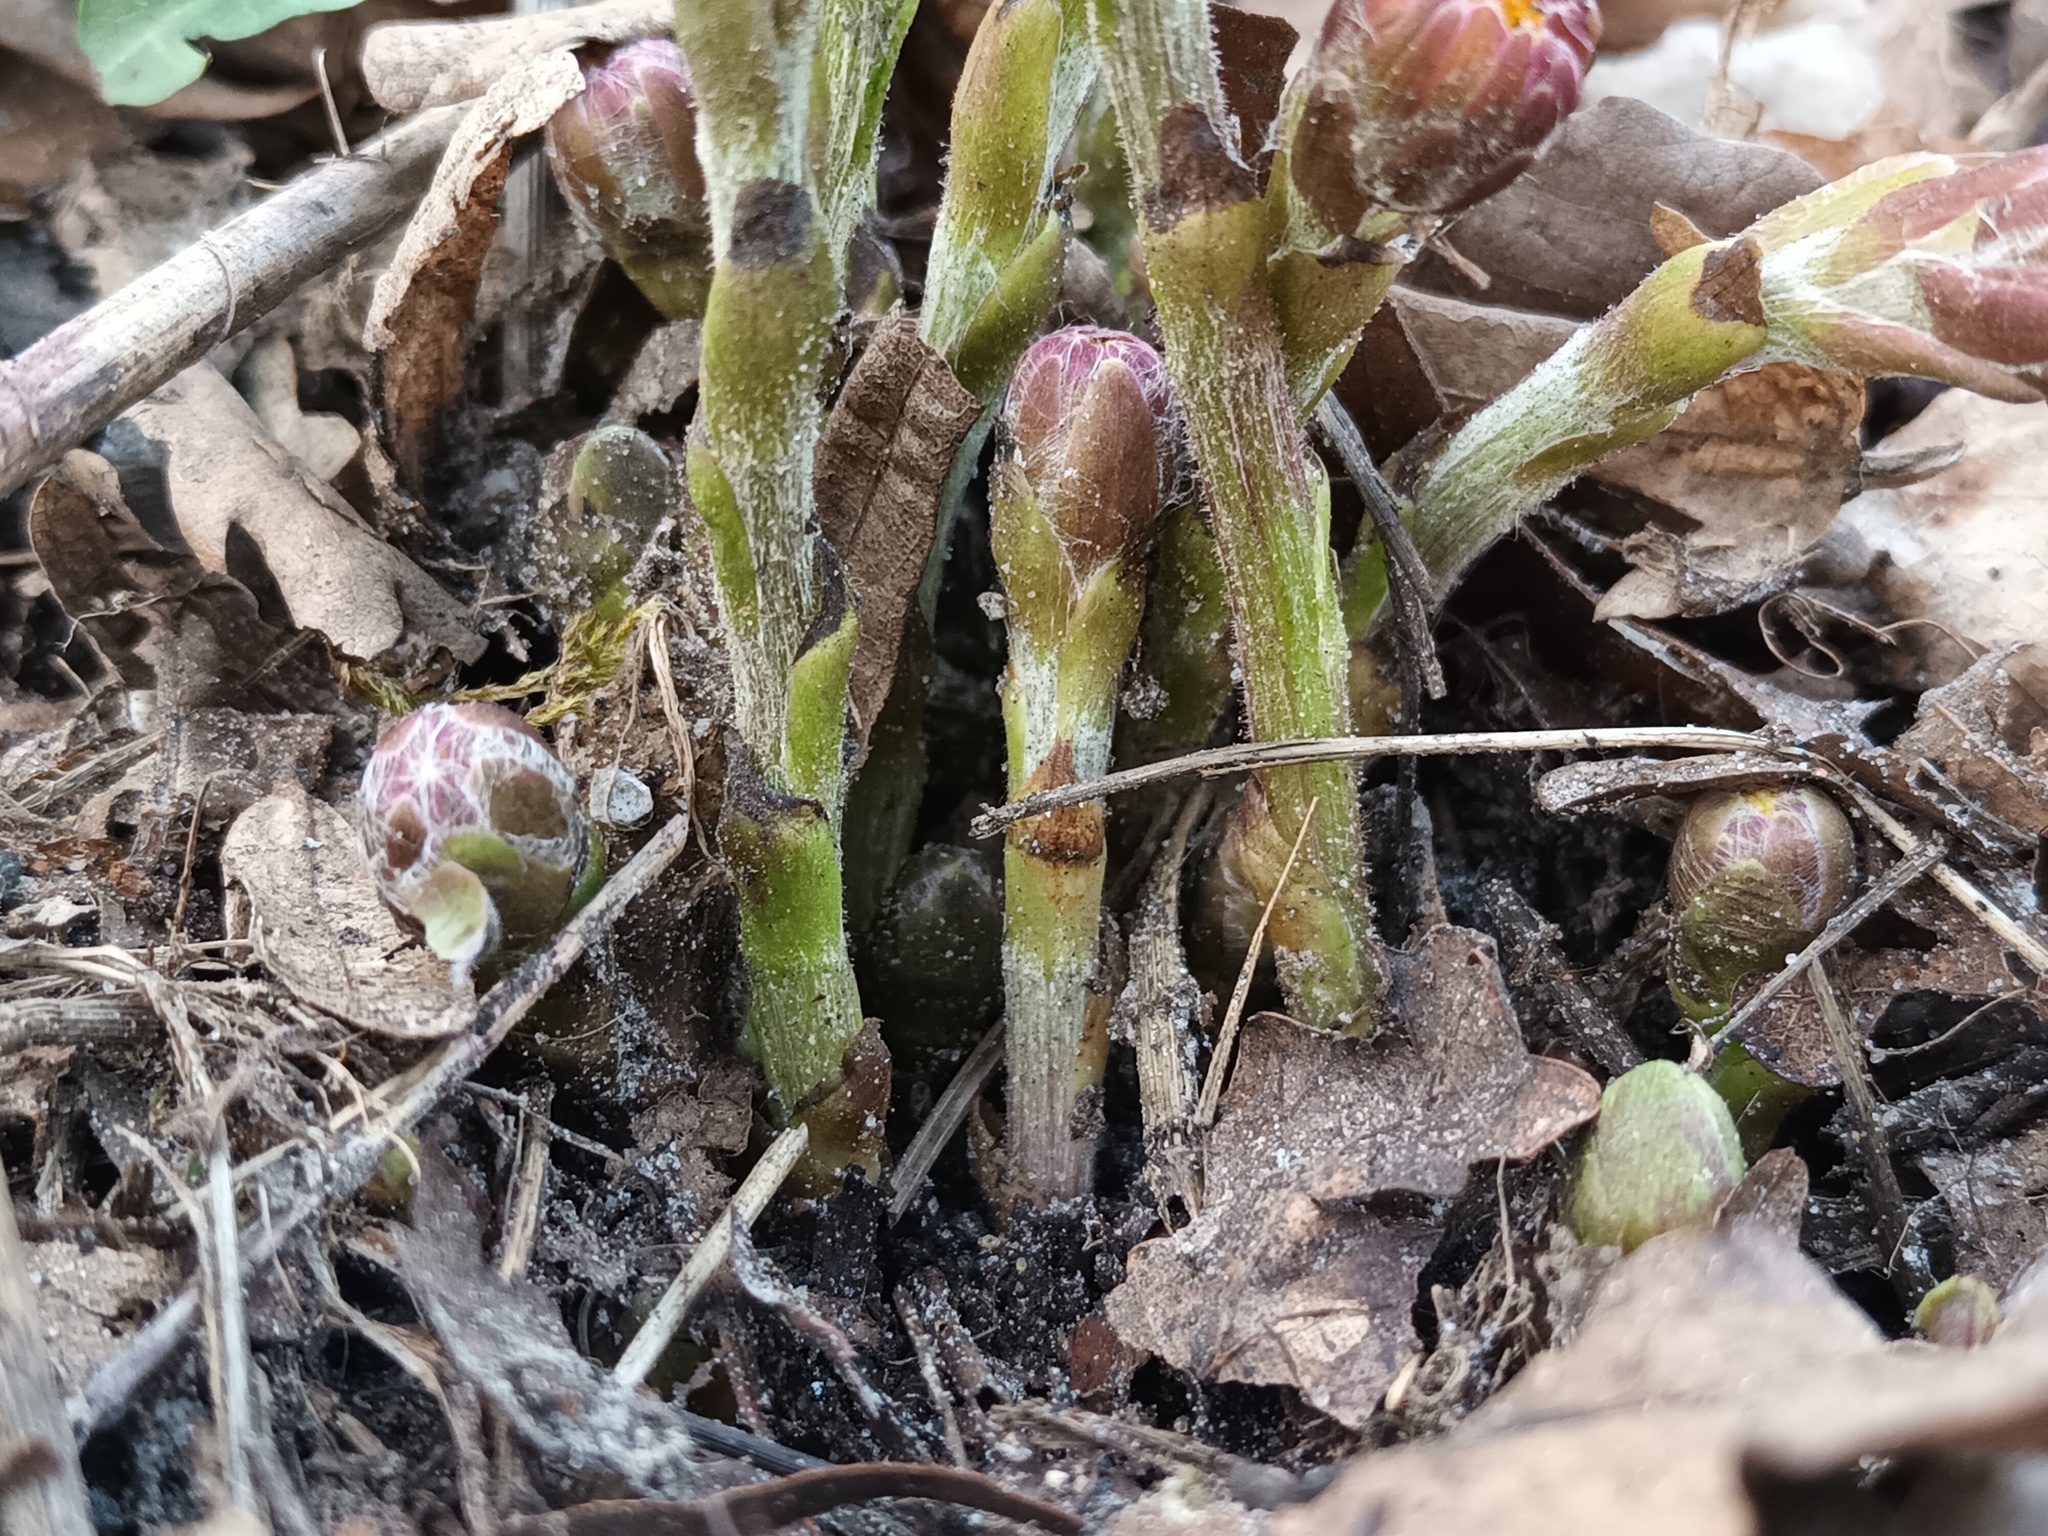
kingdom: Plantae
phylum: Tracheophyta
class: Magnoliopsida
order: Asterales
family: Asteraceae
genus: Tussilago
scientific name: Tussilago farfara
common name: Coltsfoot
